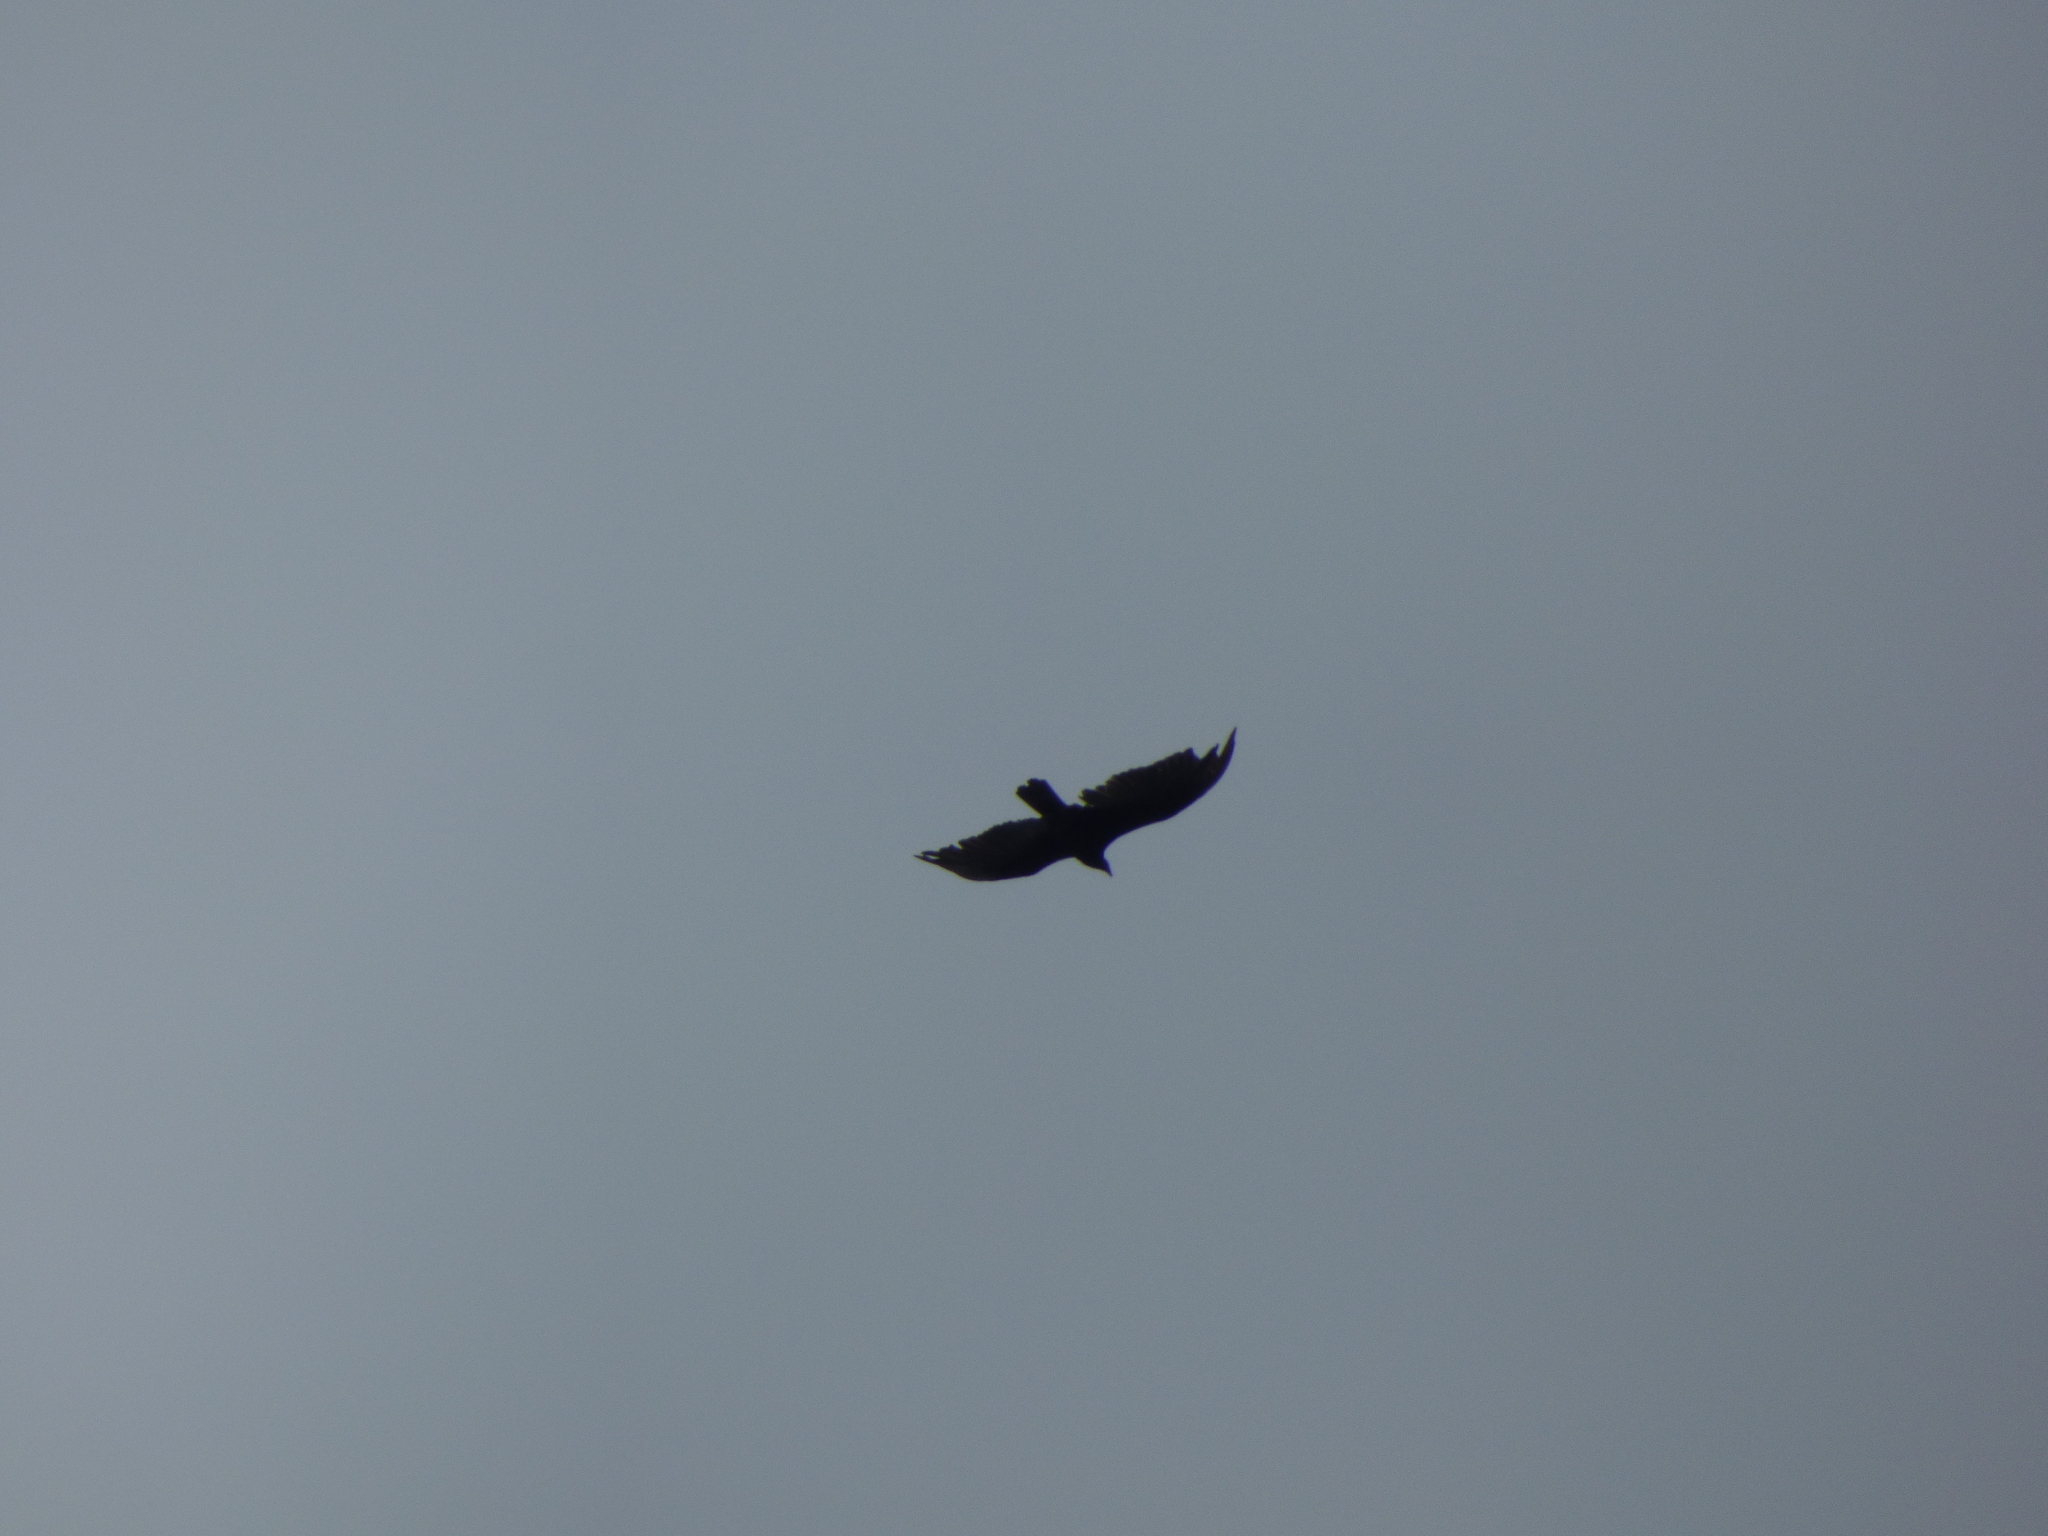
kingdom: Animalia
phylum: Chordata
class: Aves
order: Accipitriformes
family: Cathartidae
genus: Cathartes
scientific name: Cathartes aura
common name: Turkey vulture
